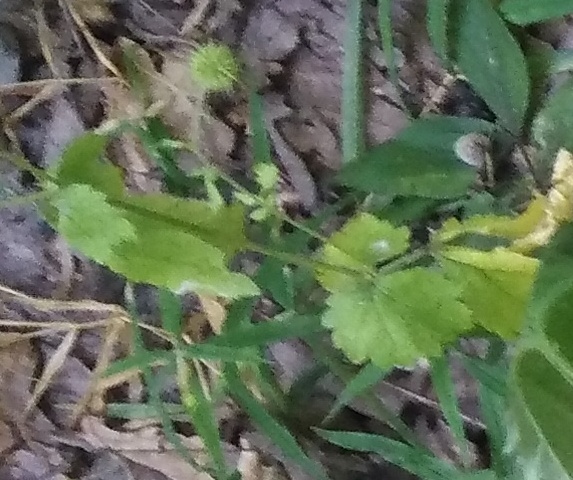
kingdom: Plantae
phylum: Tracheophyta
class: Magnoliopsida
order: Rosales
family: Rosaceae
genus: Geum
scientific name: Geum urbanum
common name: Wood avens
